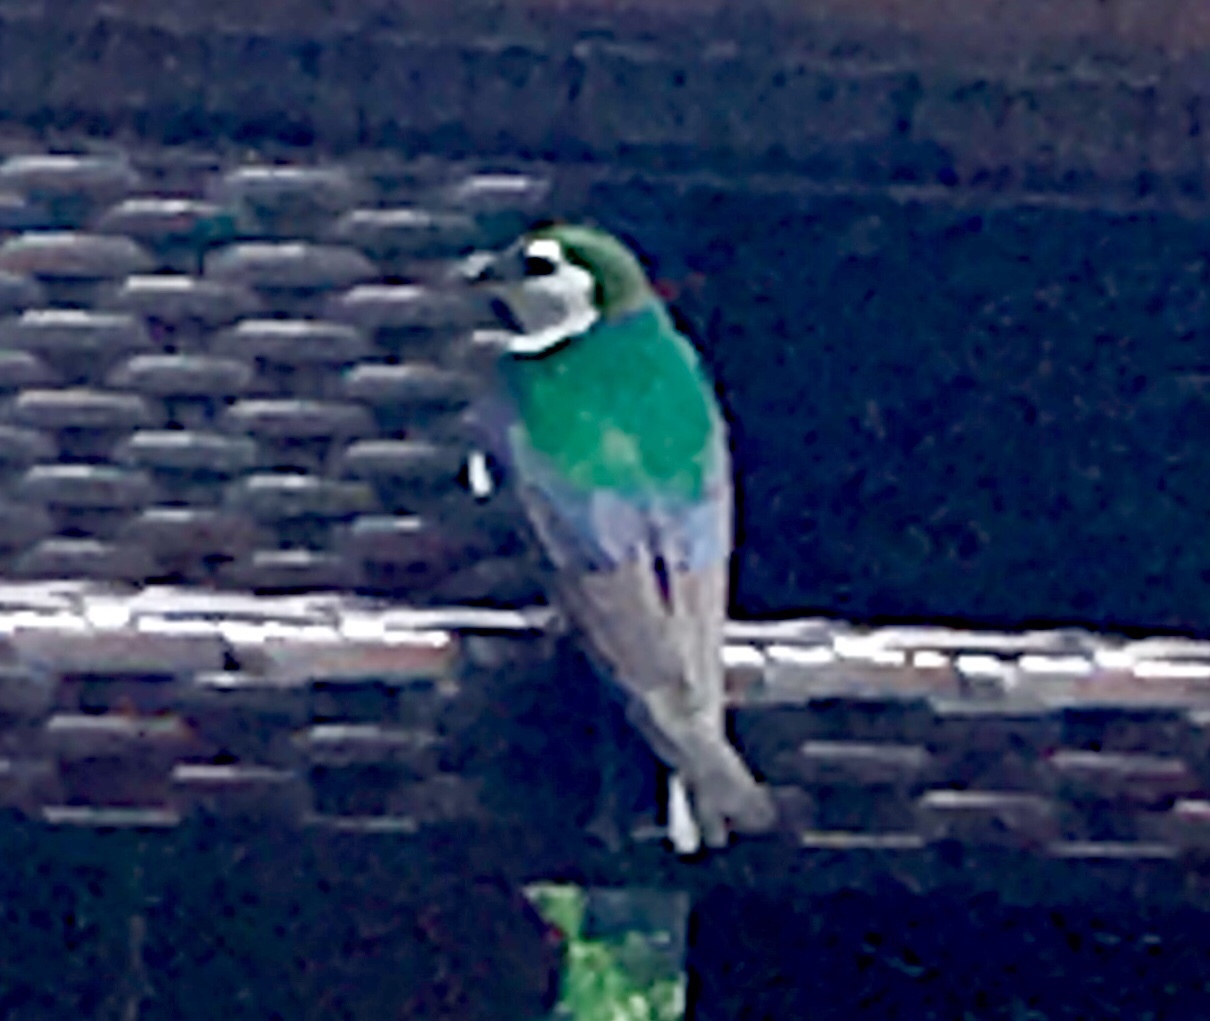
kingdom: Animalia
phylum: Chordata
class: Aves
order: Passeriformes
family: Hirundinidae
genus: Tachycineta
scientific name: Tachycineta thalassina
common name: Violet-green swallow
